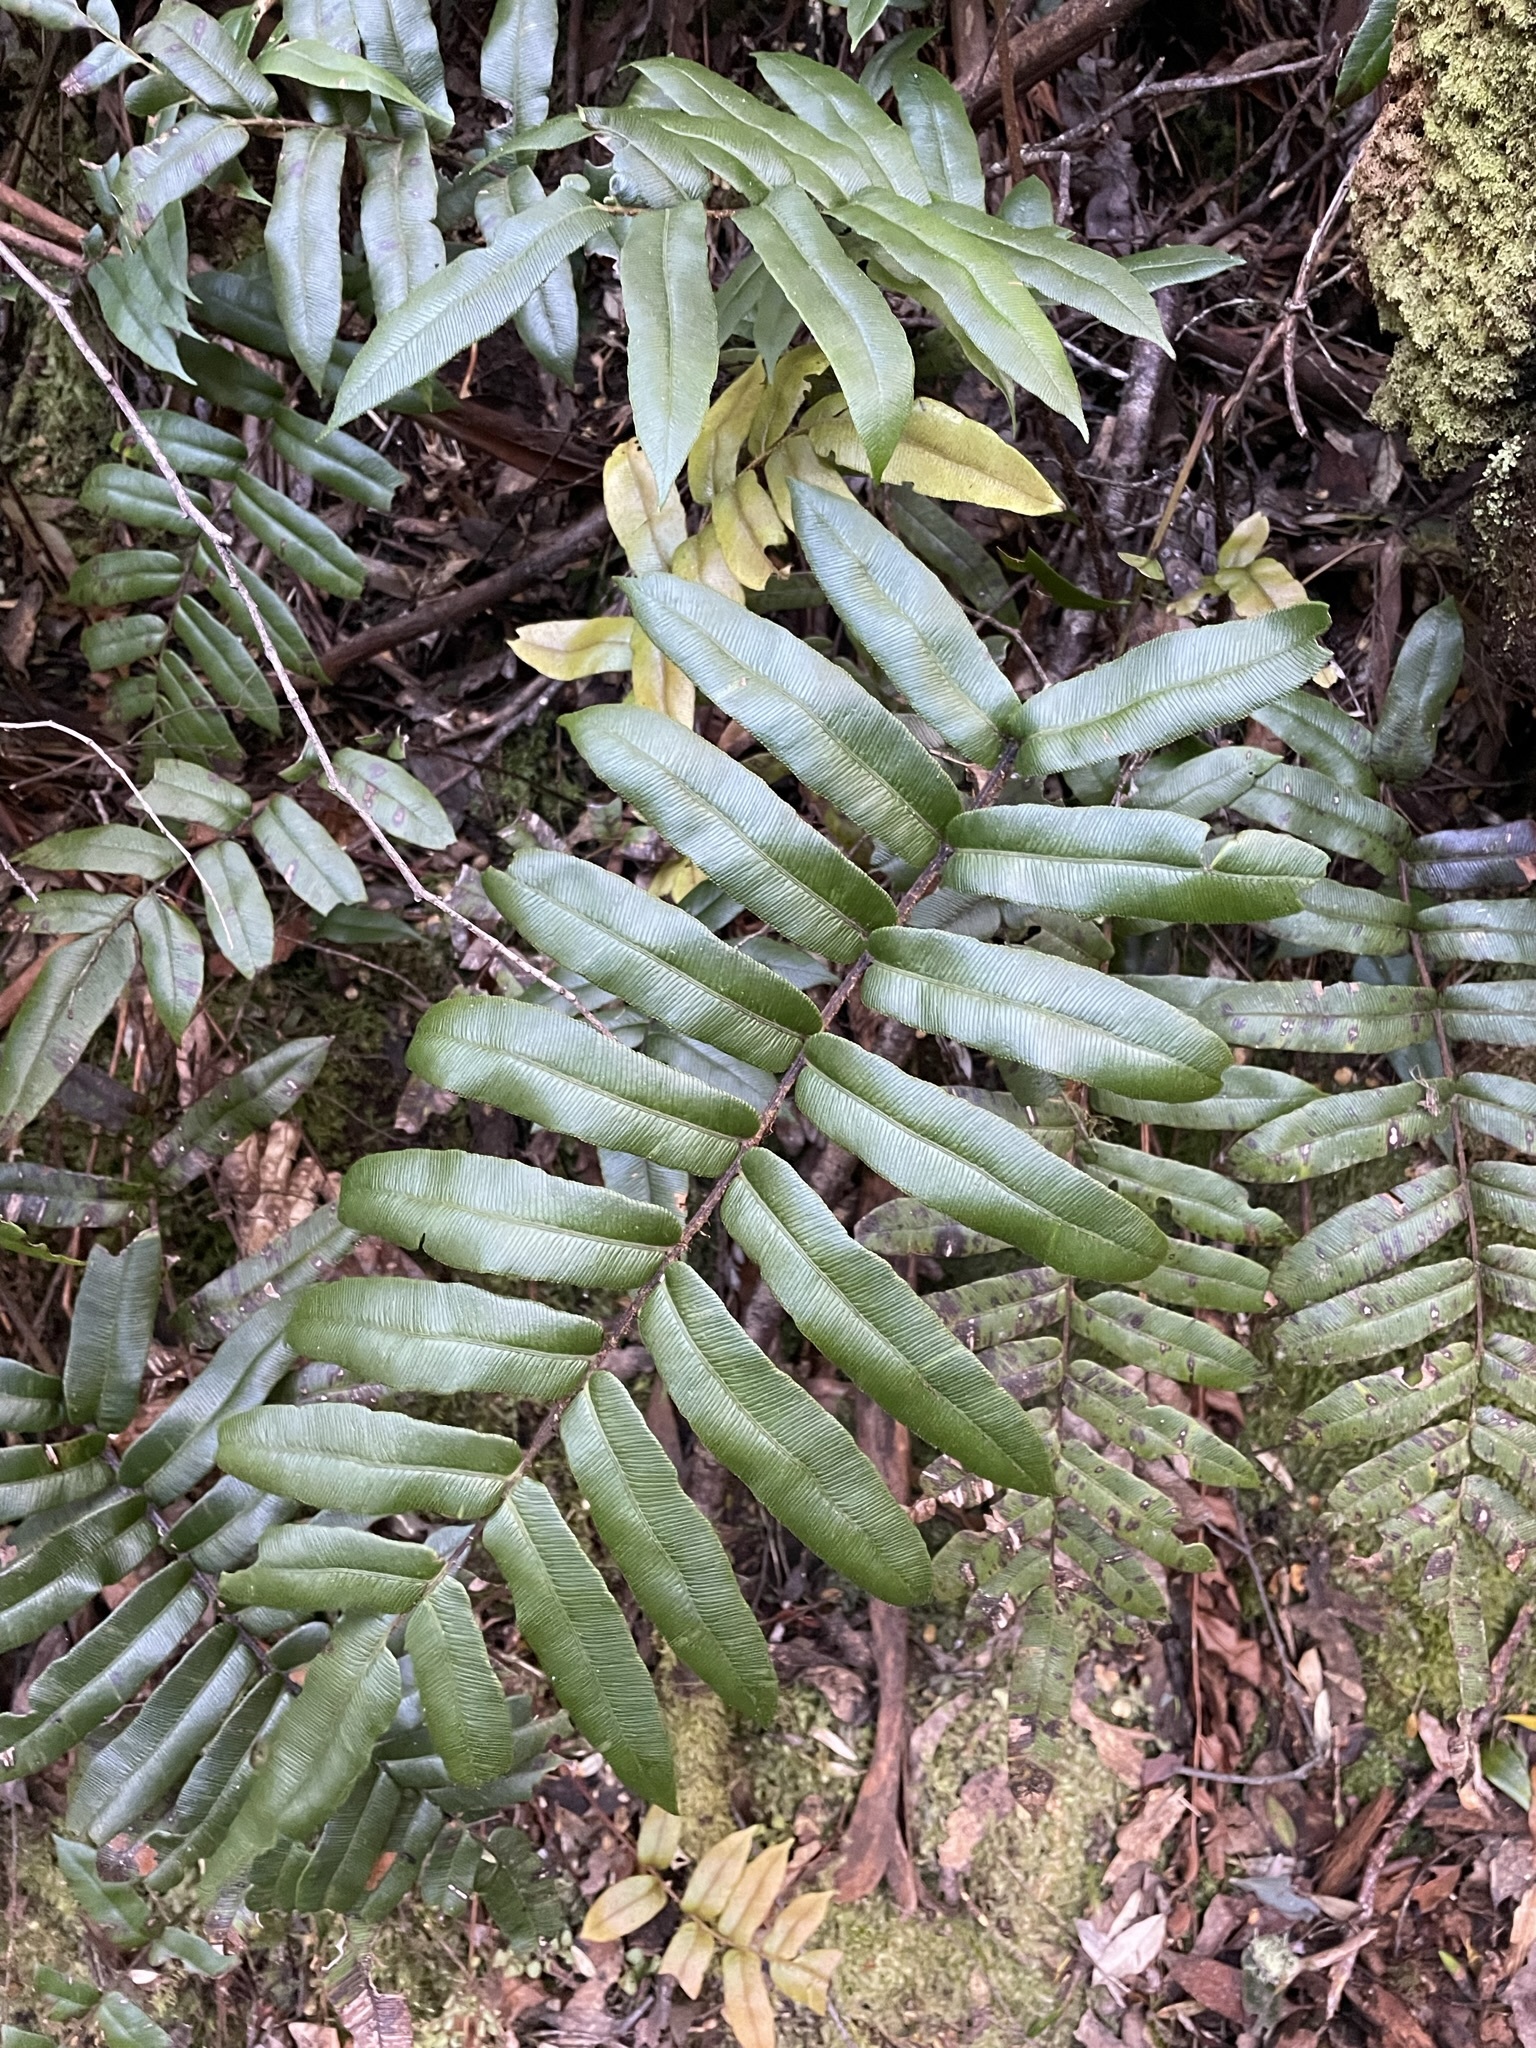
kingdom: Plantae
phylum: Tracheophyta
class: Polypodiopsida
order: Polypodiales
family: Blechnaceae
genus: Parablechnum
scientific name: Parablechnum wattsii
